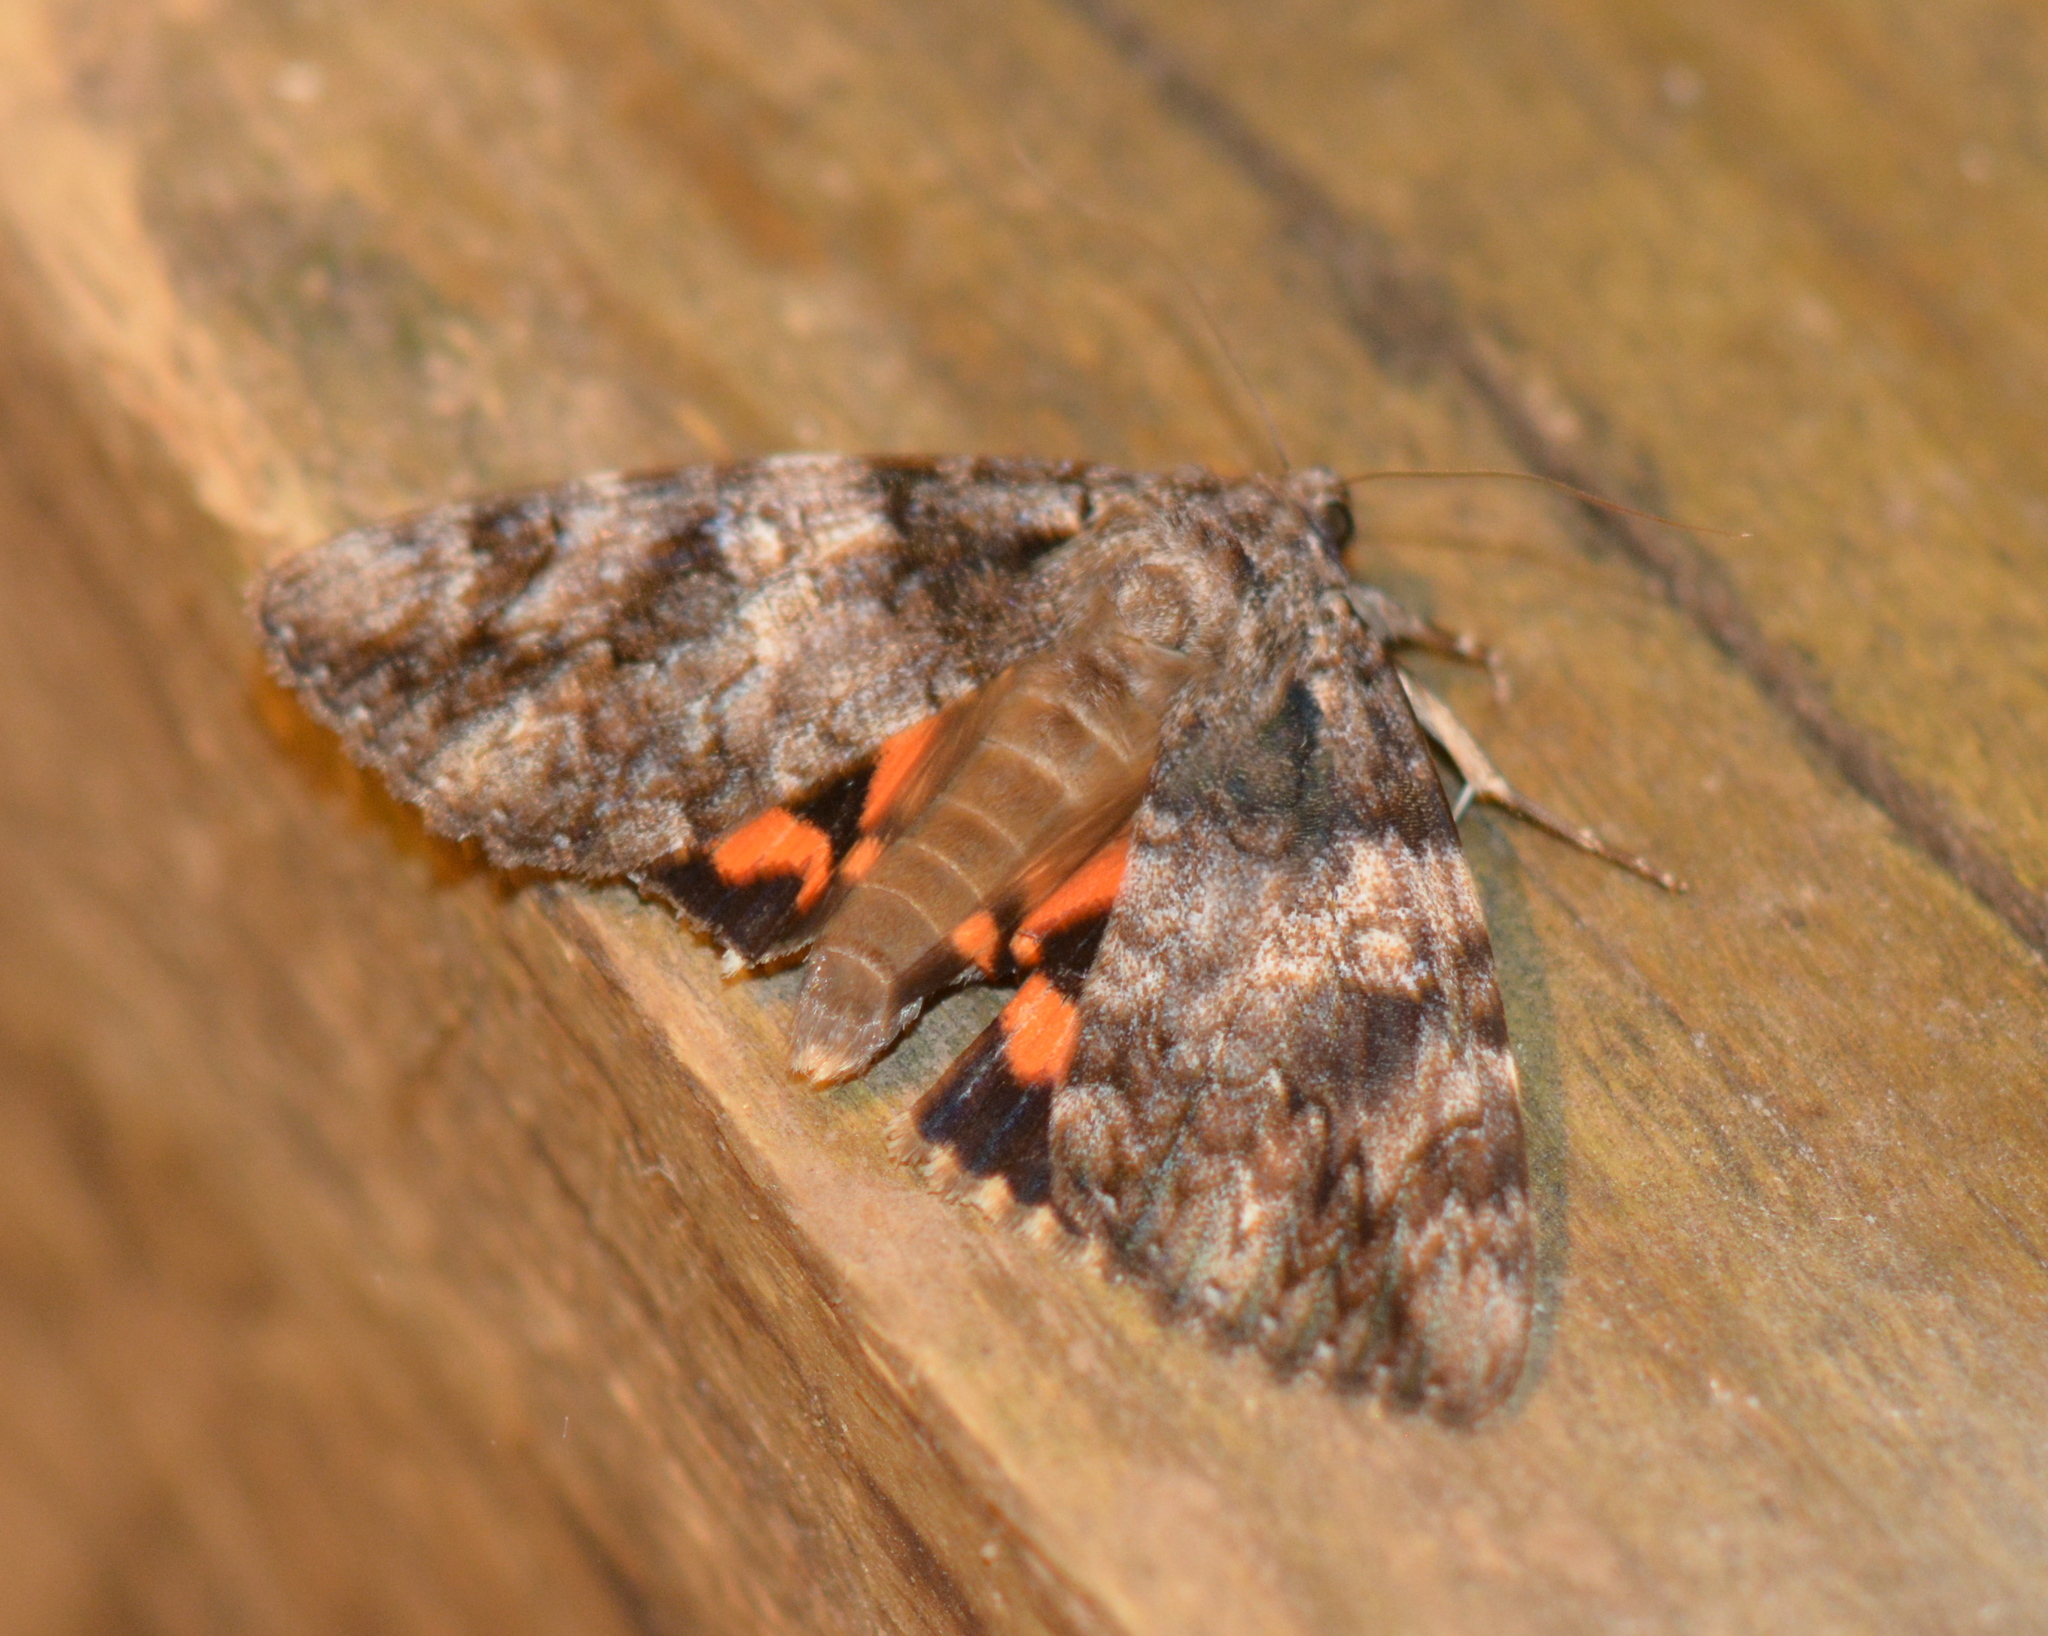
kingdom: Animalia
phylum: Arthropoda
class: Insecta
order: Lepidoptera
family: Erebidae
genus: Catocala
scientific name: Catocala ilia
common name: Ilia underwing
